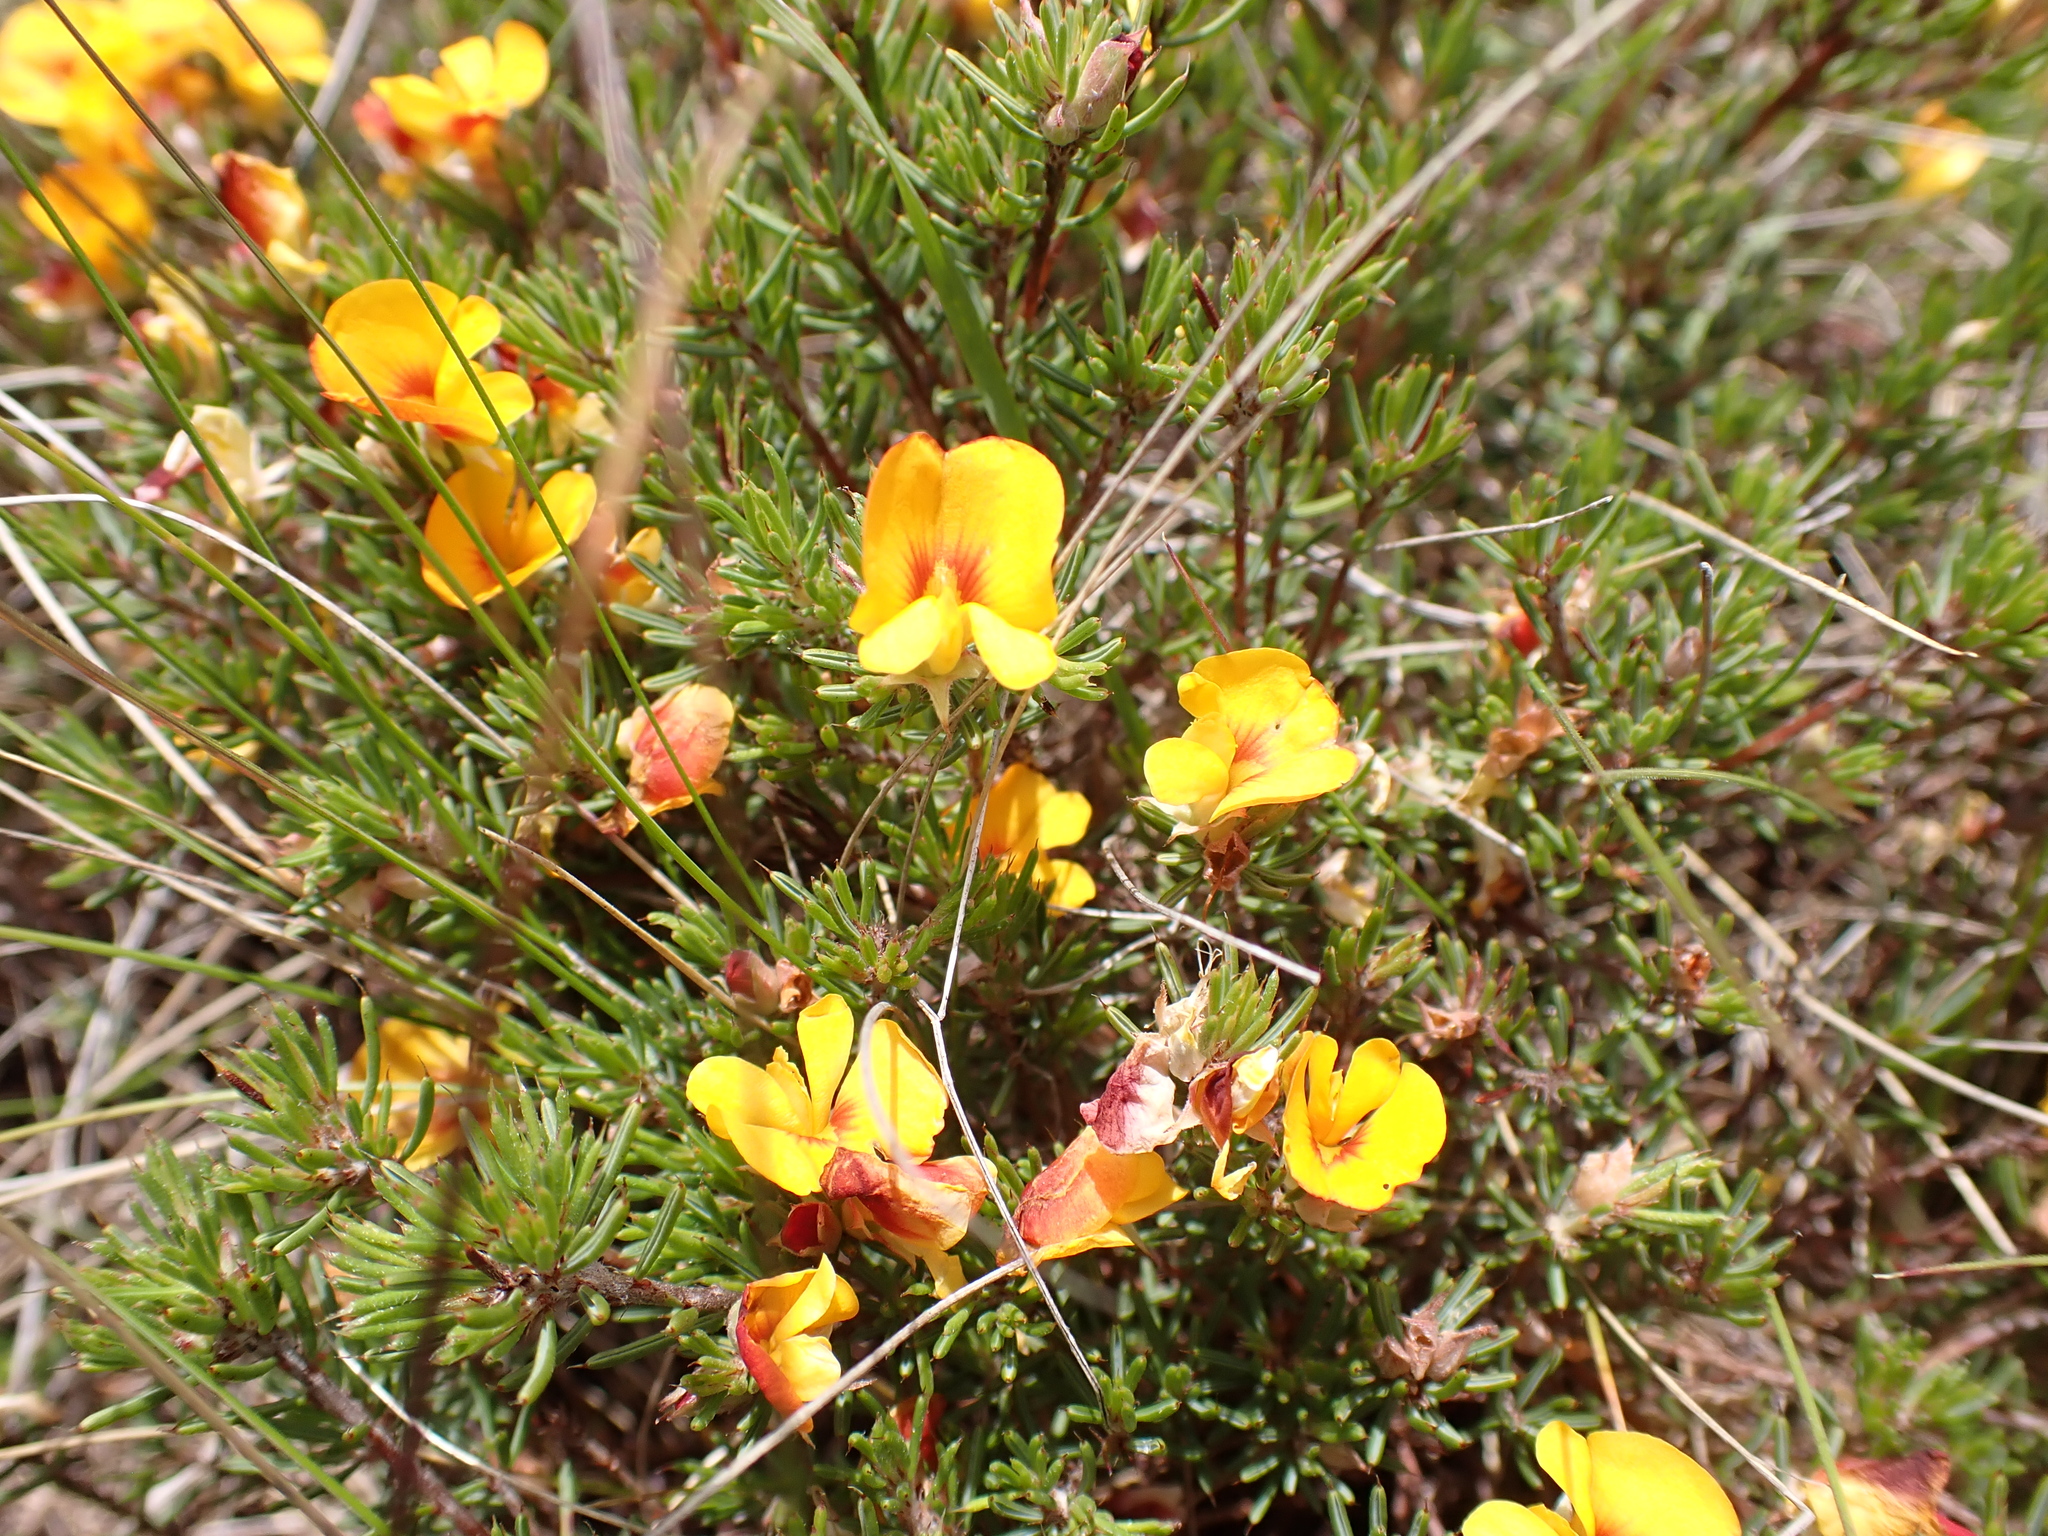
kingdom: Plantae
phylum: Tracheophyta
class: Magnoliopsida
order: Fabales
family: Fabaceae
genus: Pultenaea
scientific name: Pultenaea fasciculata
